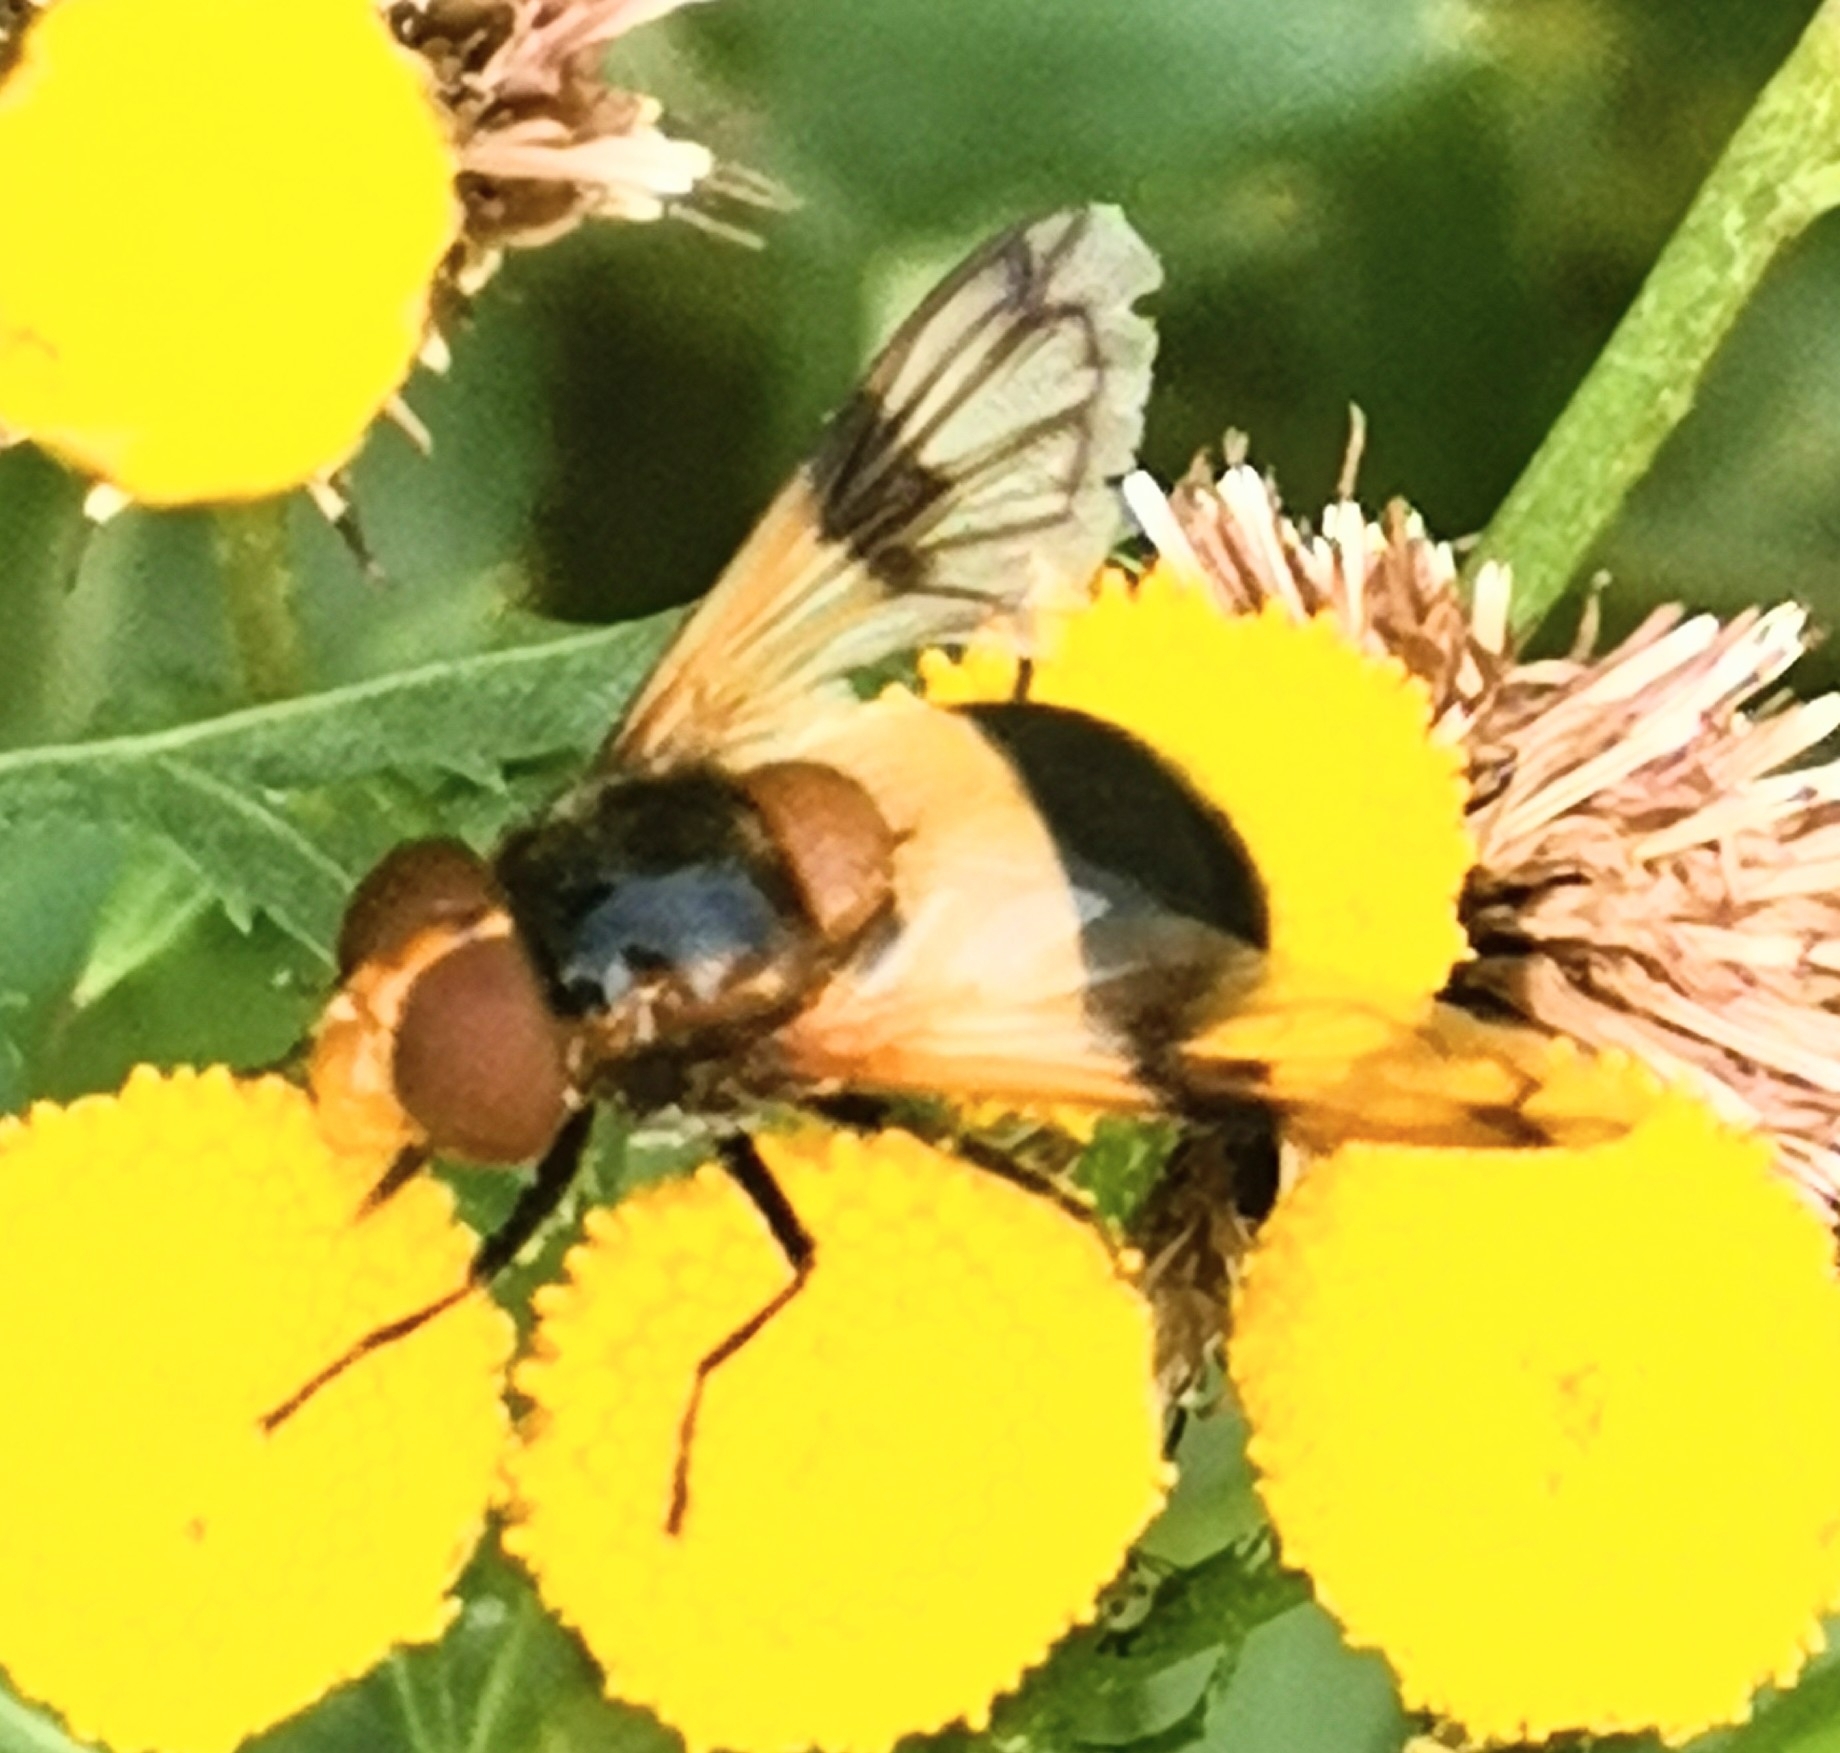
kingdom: Animalia
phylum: Arthropoda
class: Insecta
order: Diptera
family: Syrphidae
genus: Volucella
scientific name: Volucella pellucens
